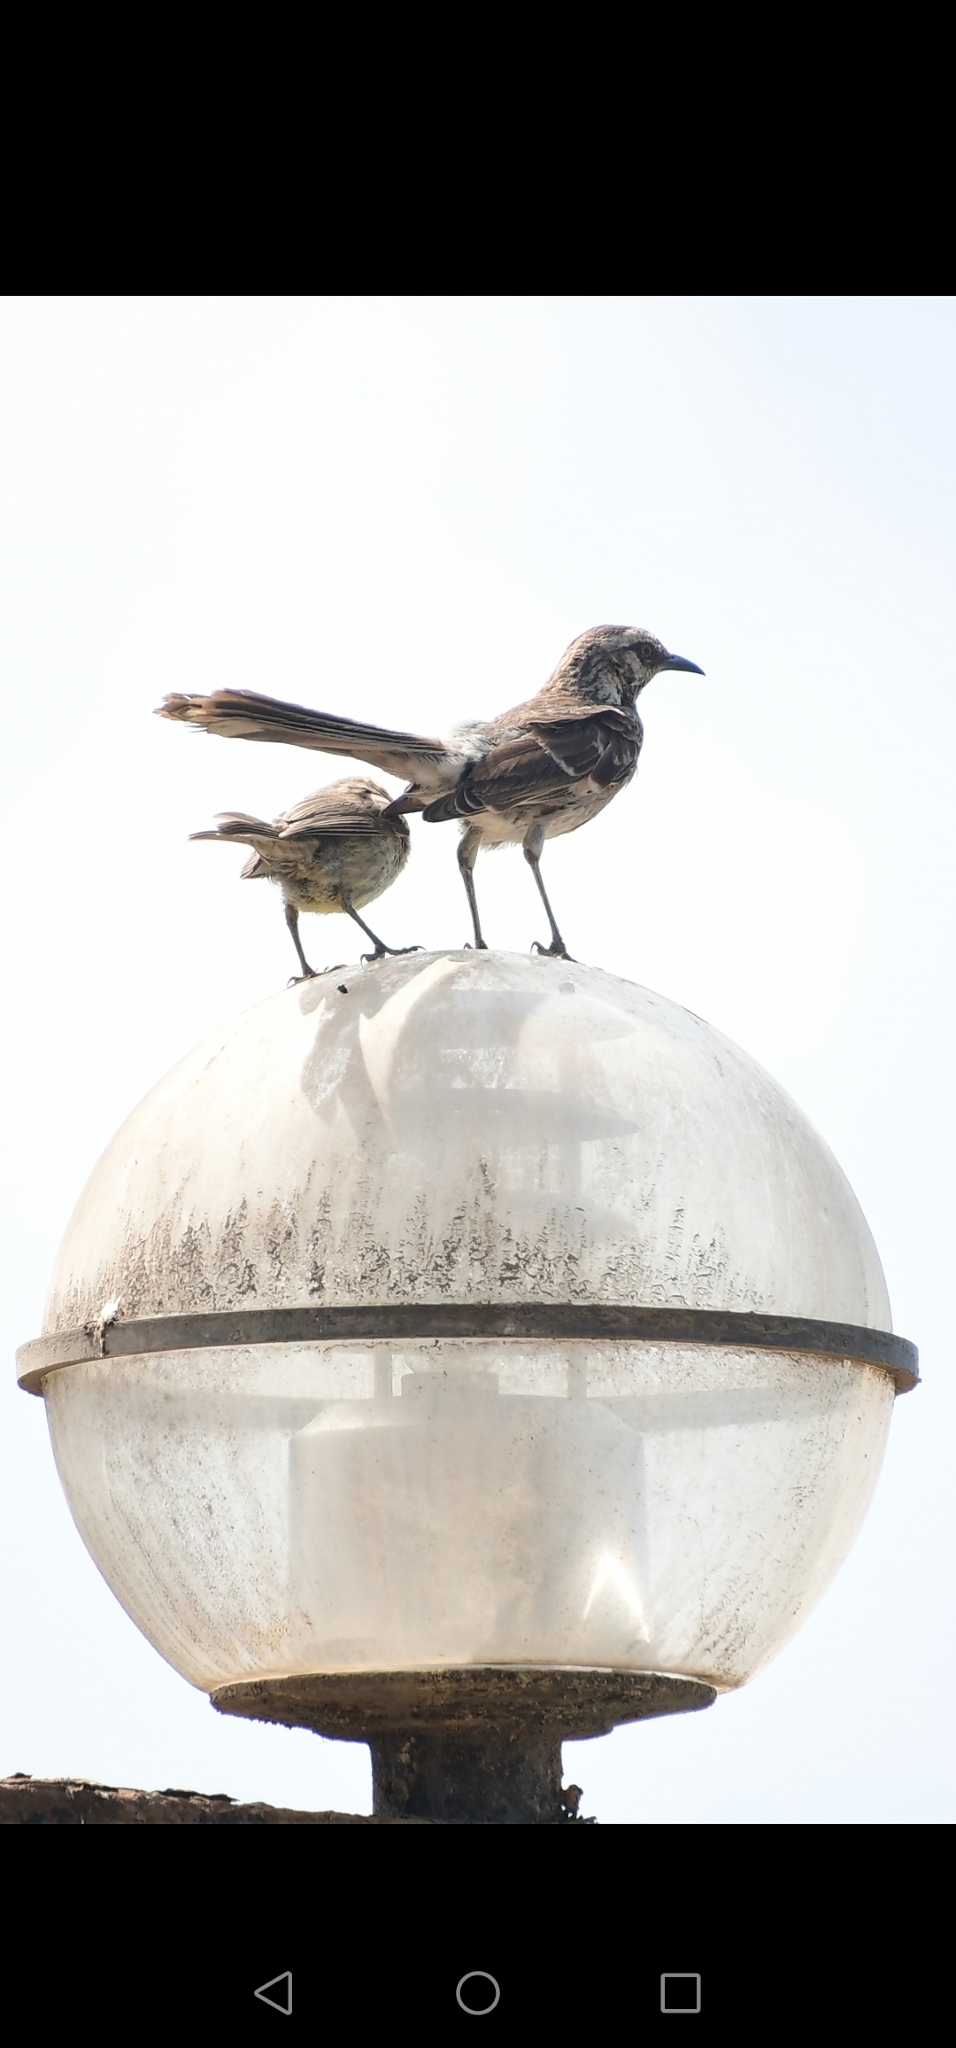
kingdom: Animalia
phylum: Chordata
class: Aves
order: Passeriformes
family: Mimidae
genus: Mimus
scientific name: Mimus longicaudatus
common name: Long-tailed mockingbird
